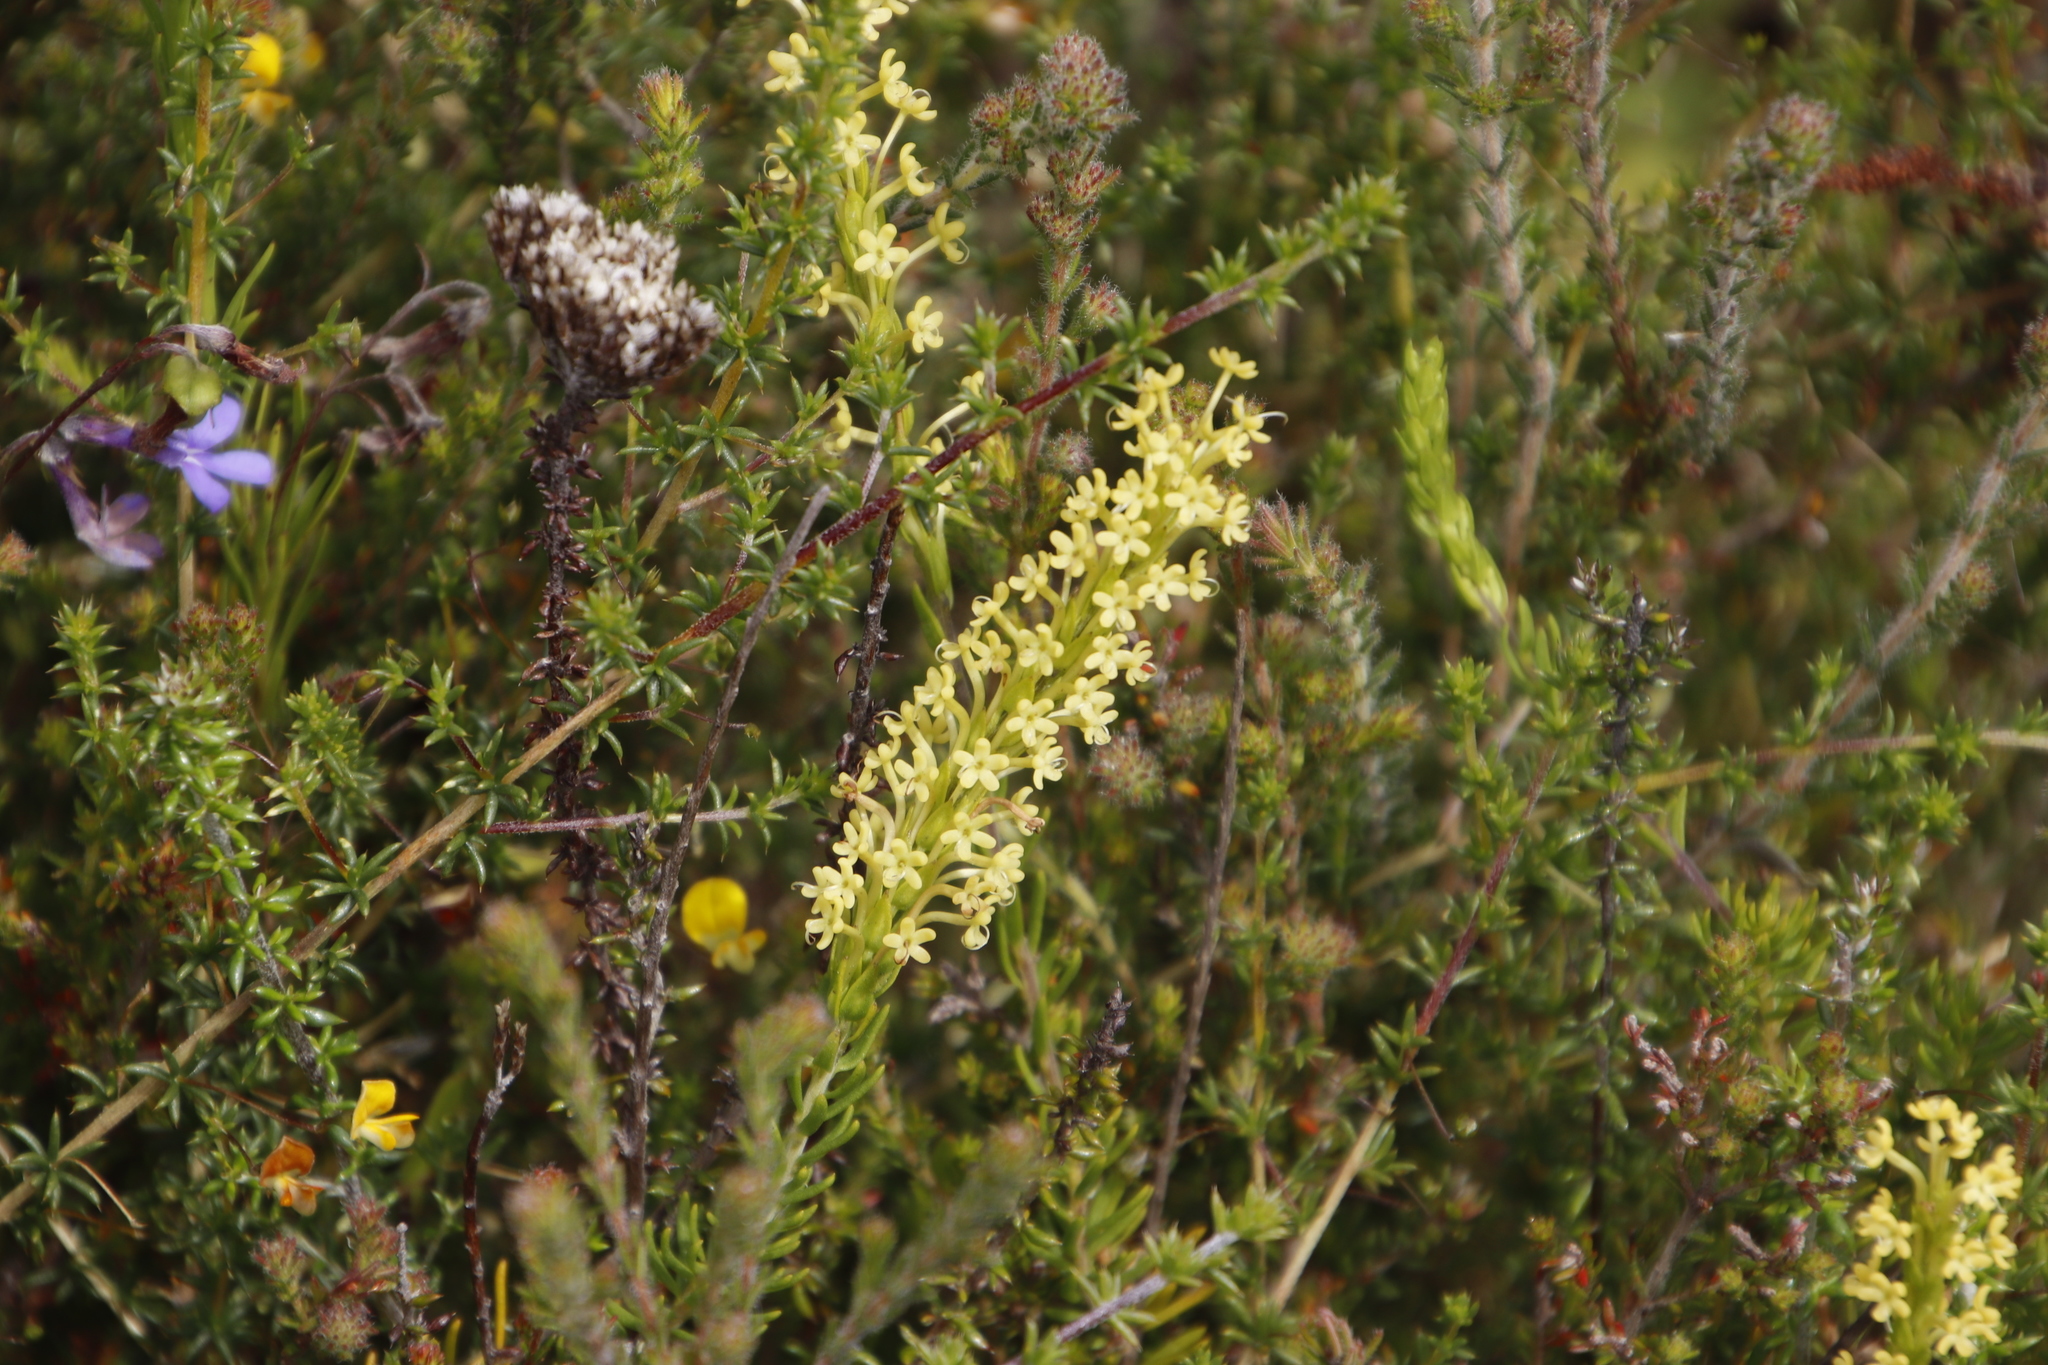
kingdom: Plantae
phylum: Tracheophyta
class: Magnoliopsida
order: Lamiales
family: Scrophulariaceae
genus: Microdon
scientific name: Microdon dubius
